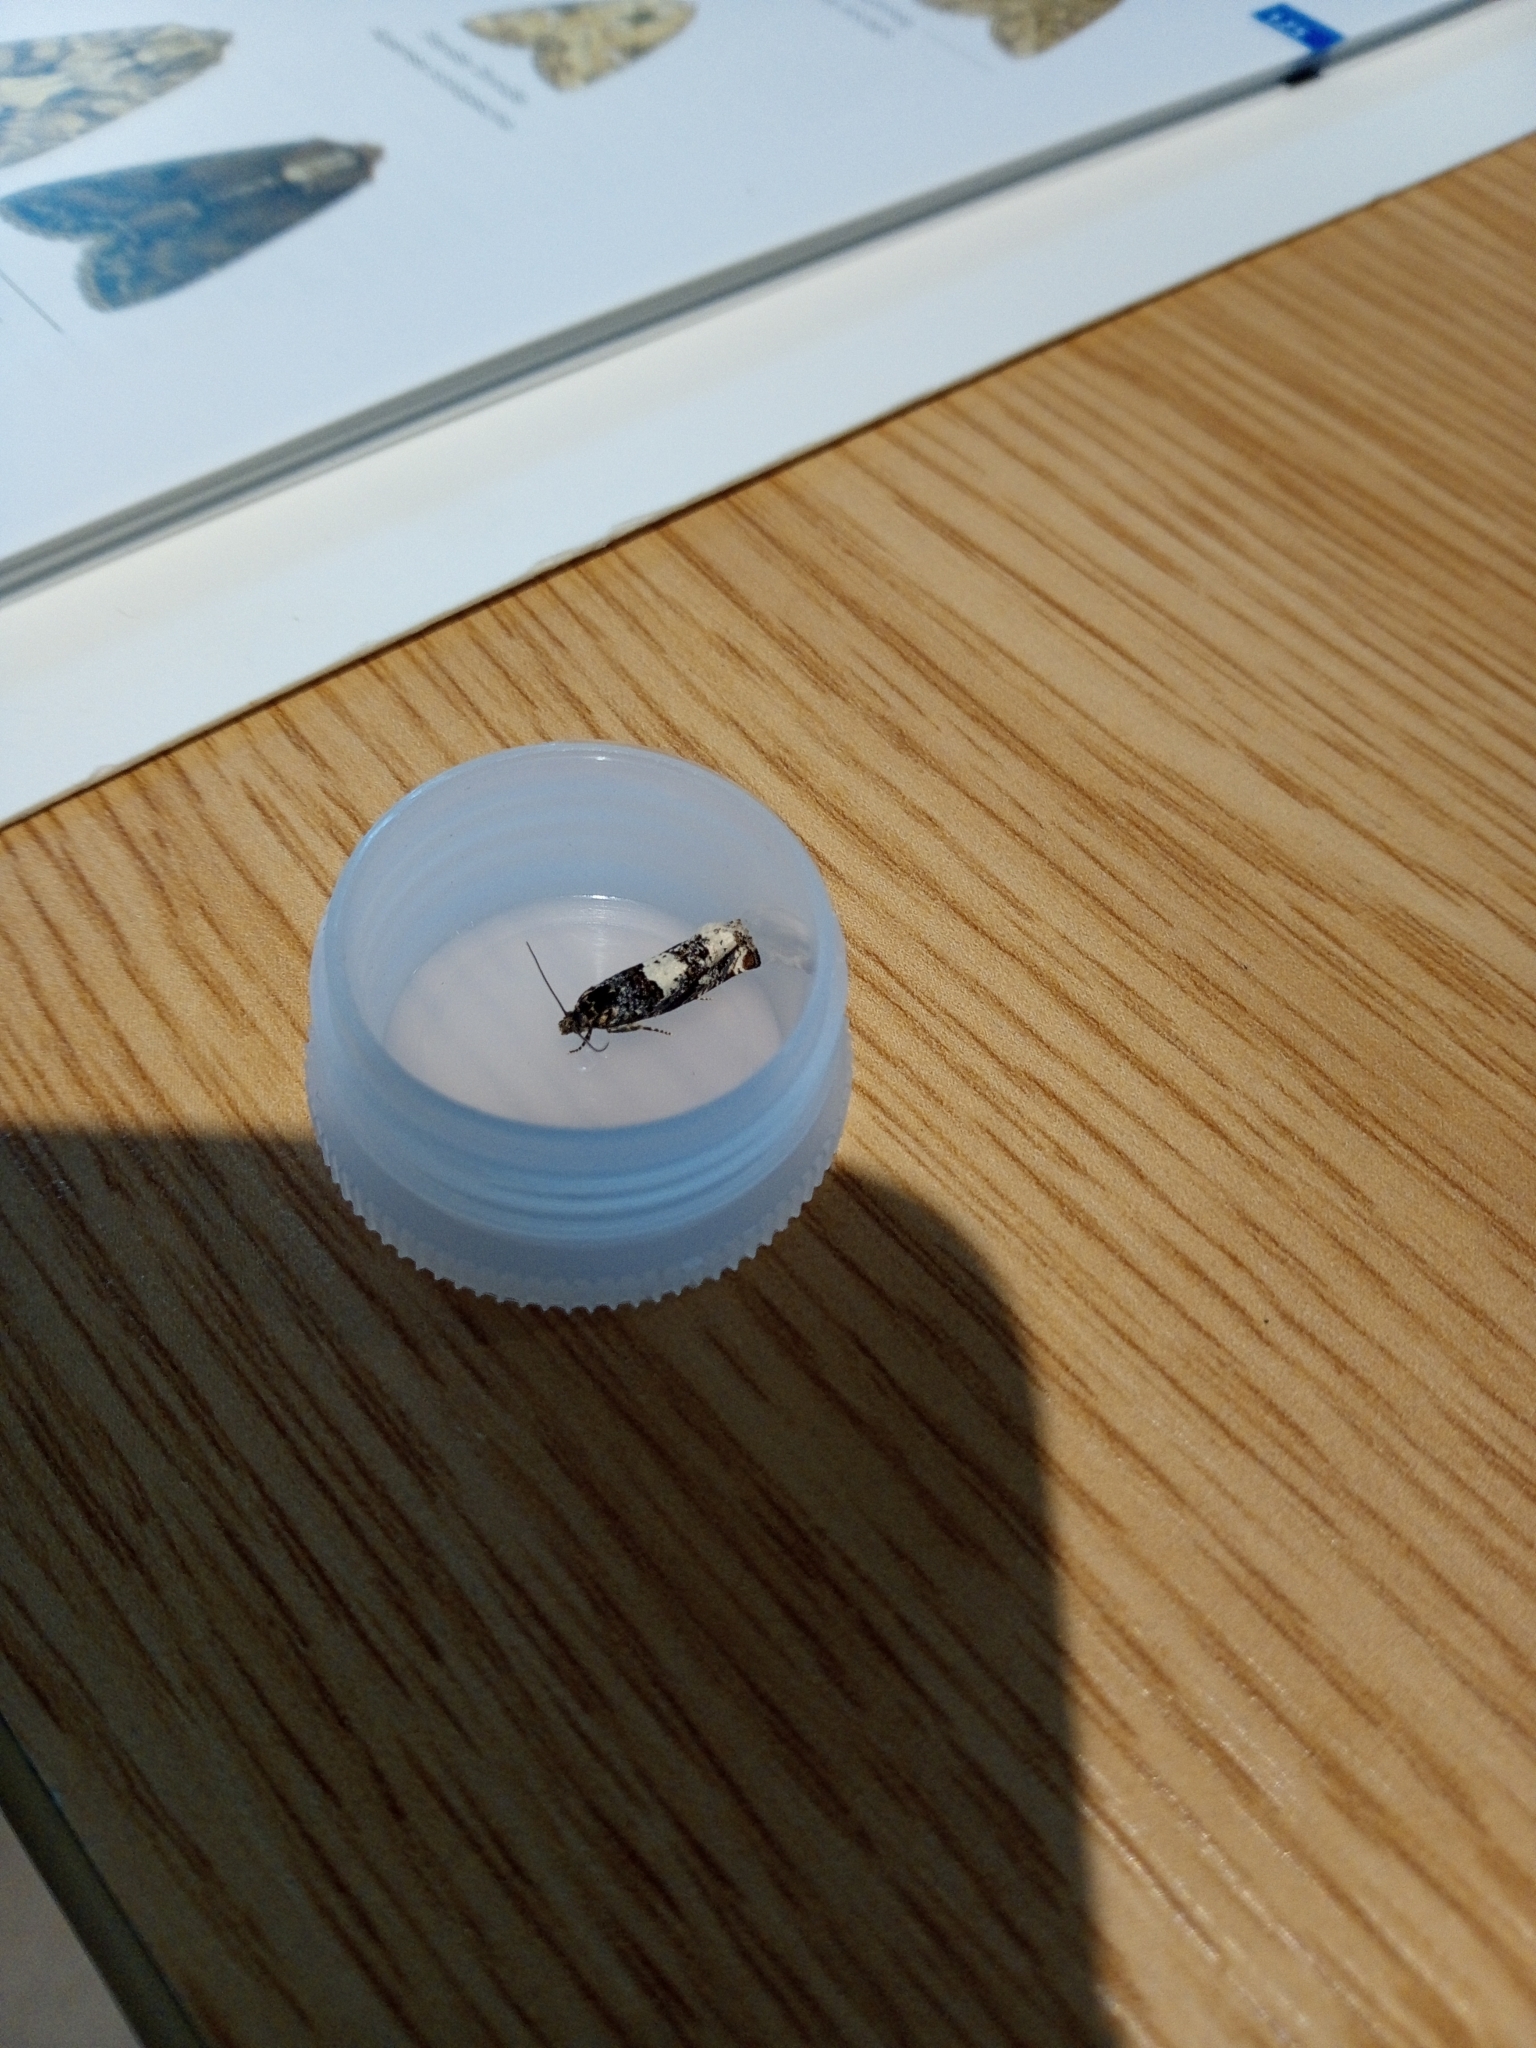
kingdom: Animalia
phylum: Arthropoda
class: Insecta
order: Lepidoptera
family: Tortricidae
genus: Epiblema
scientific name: Epiblema scutulana
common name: Thistle bell
